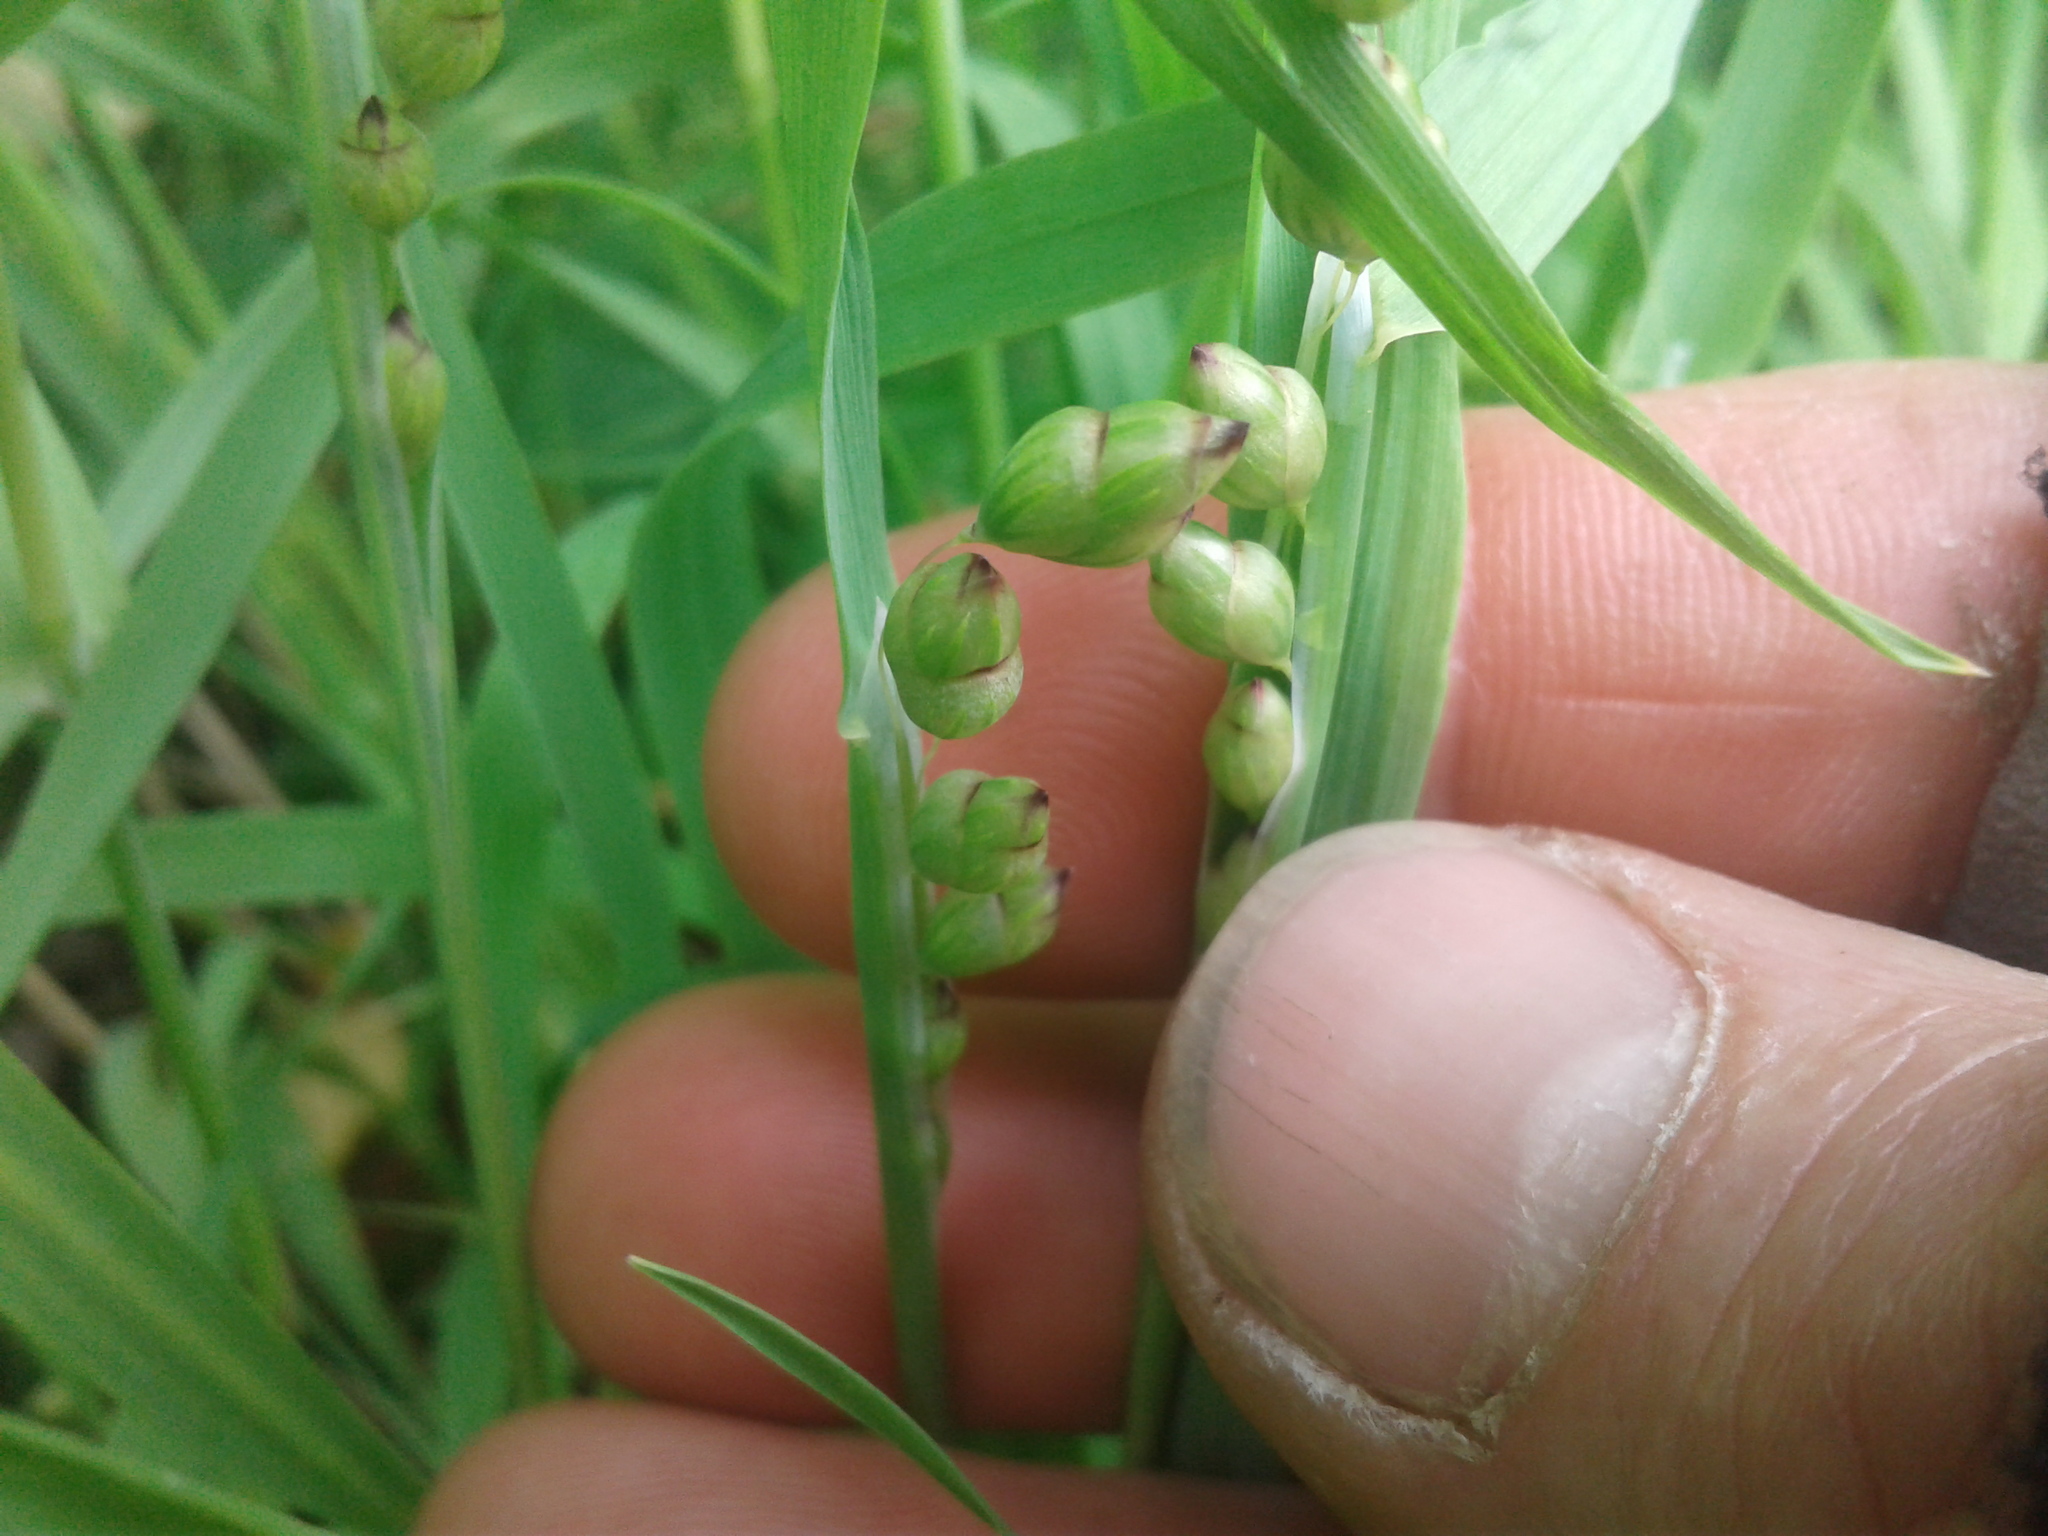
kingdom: Plantae
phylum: Tracheophyta
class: Liliopsida
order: Poales
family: Poaceae
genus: Briza
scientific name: Briza maxima
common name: Big quakinggrass
